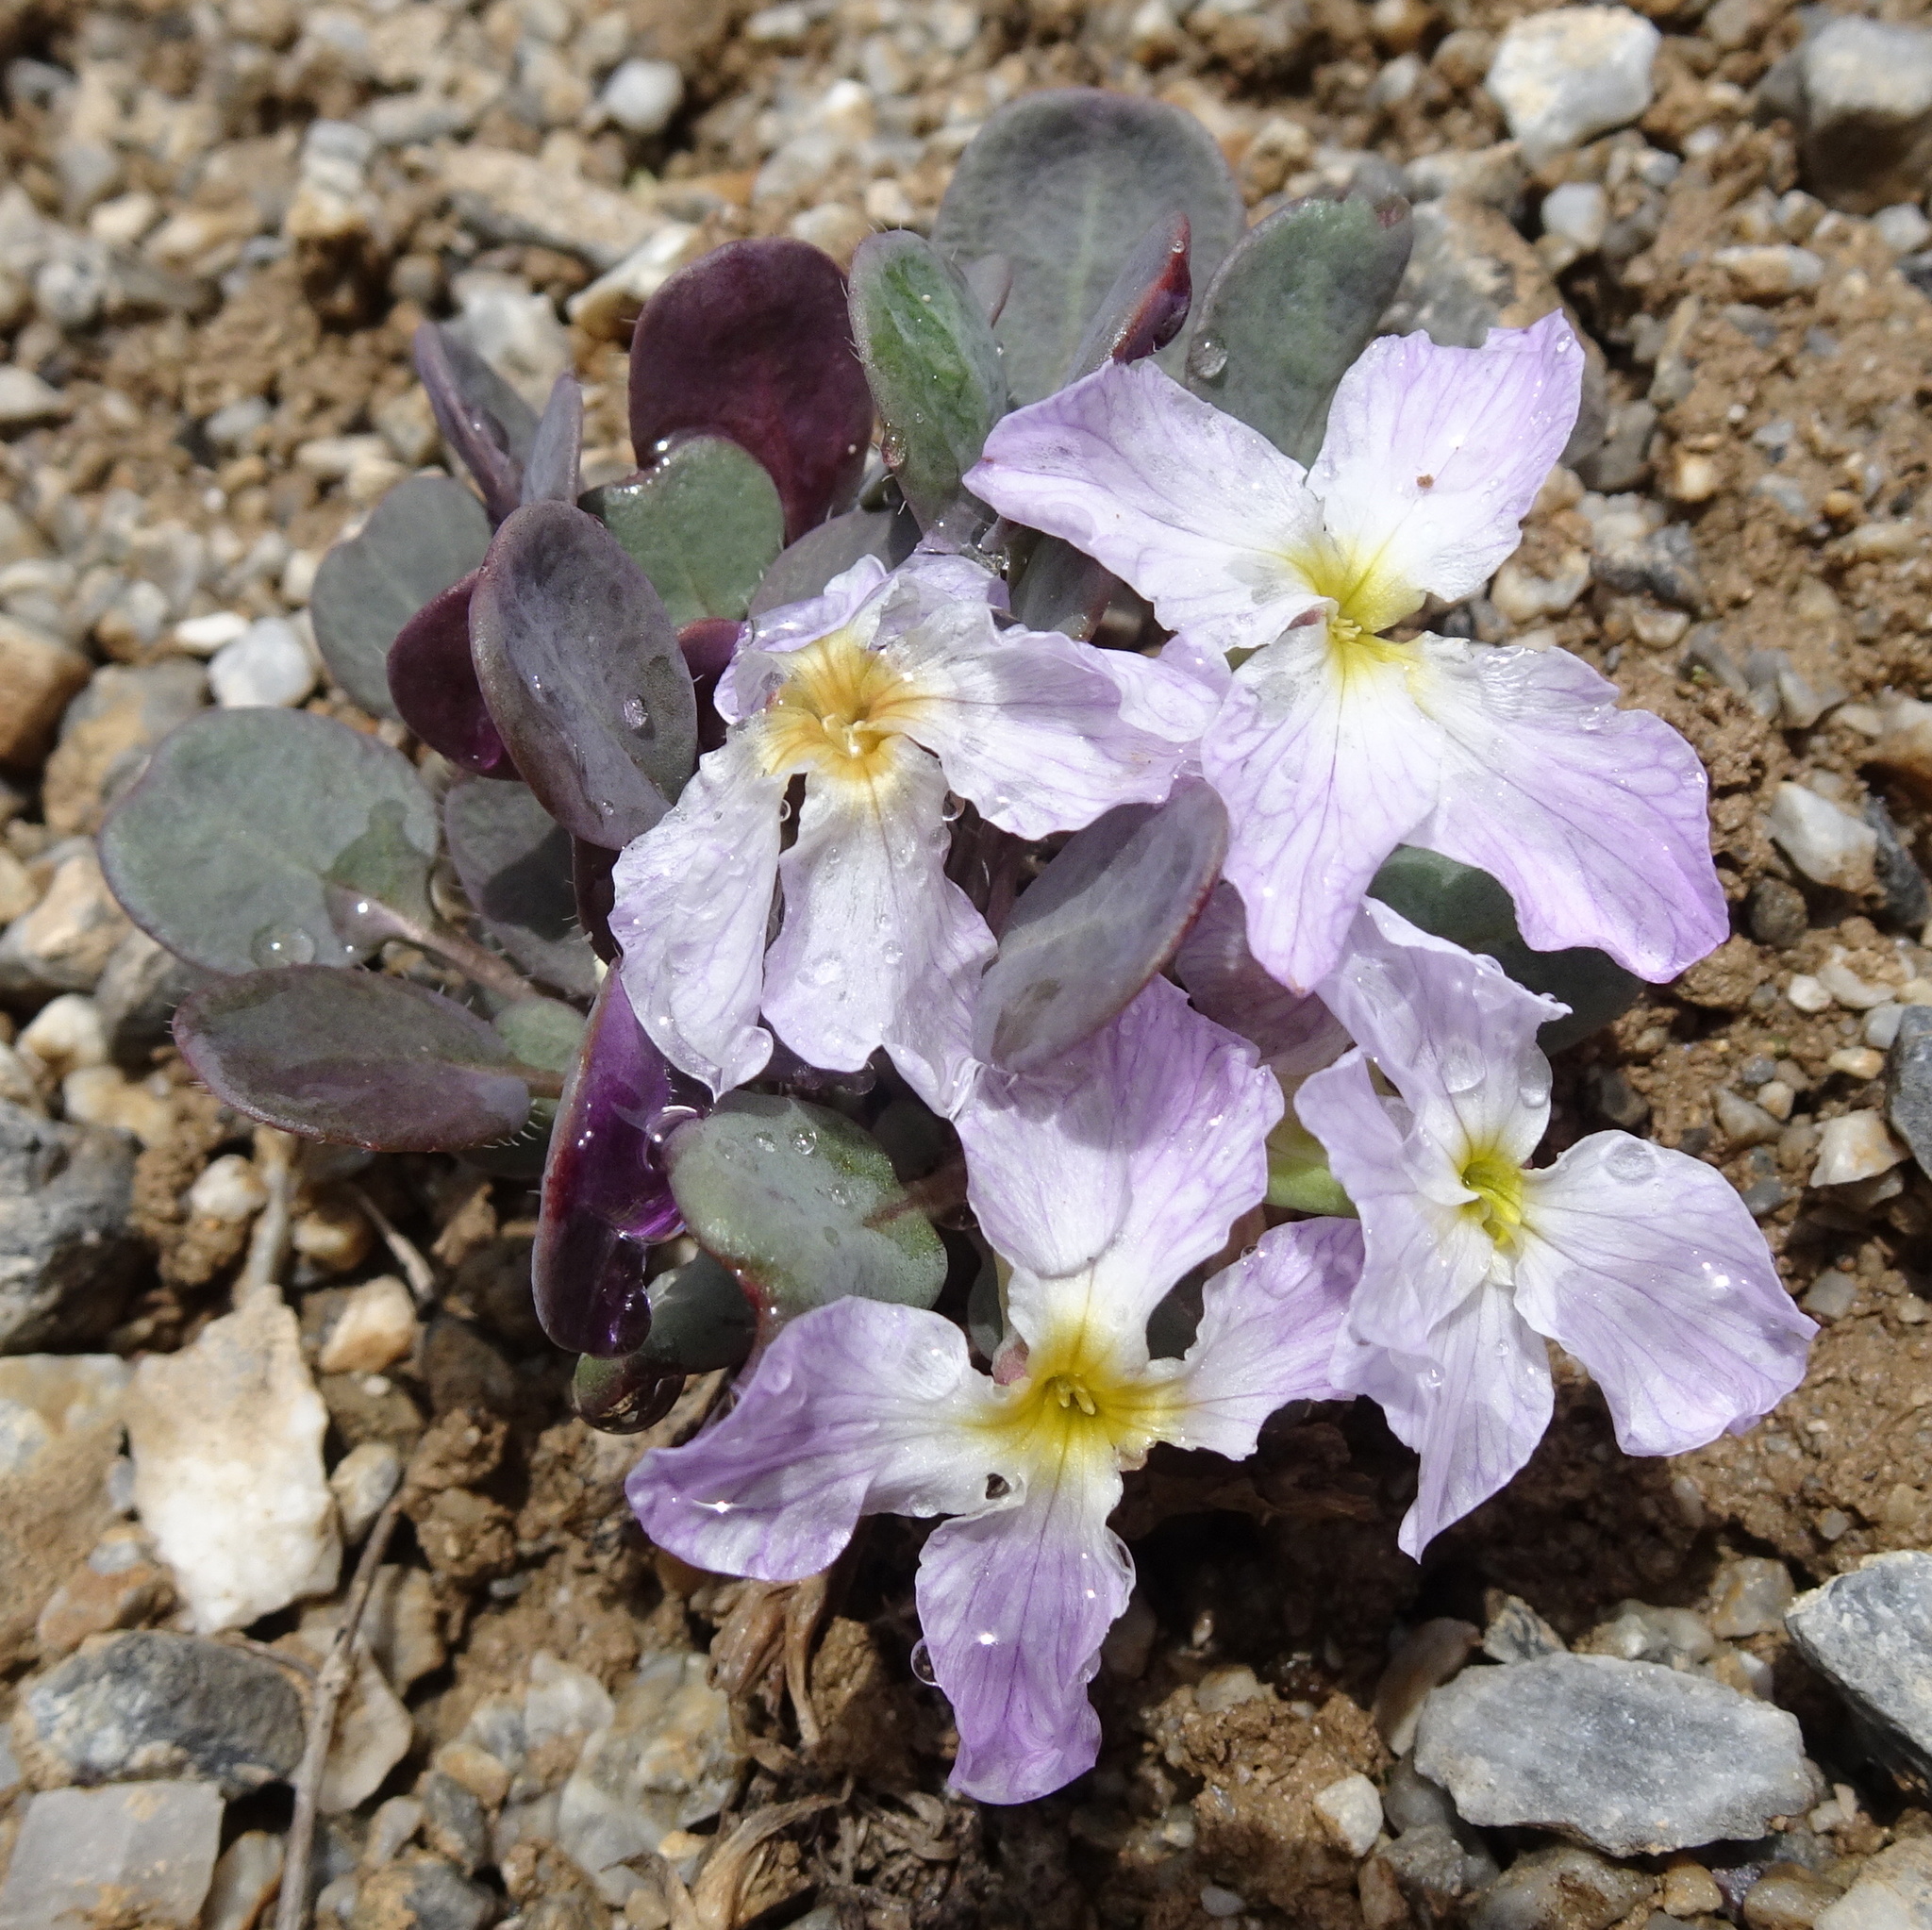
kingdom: Plantae
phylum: Tracheophyta
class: Magnoliopsida
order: Brassicales
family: Brassicaceae
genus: Leiospora
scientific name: Leiospora subscapigera
